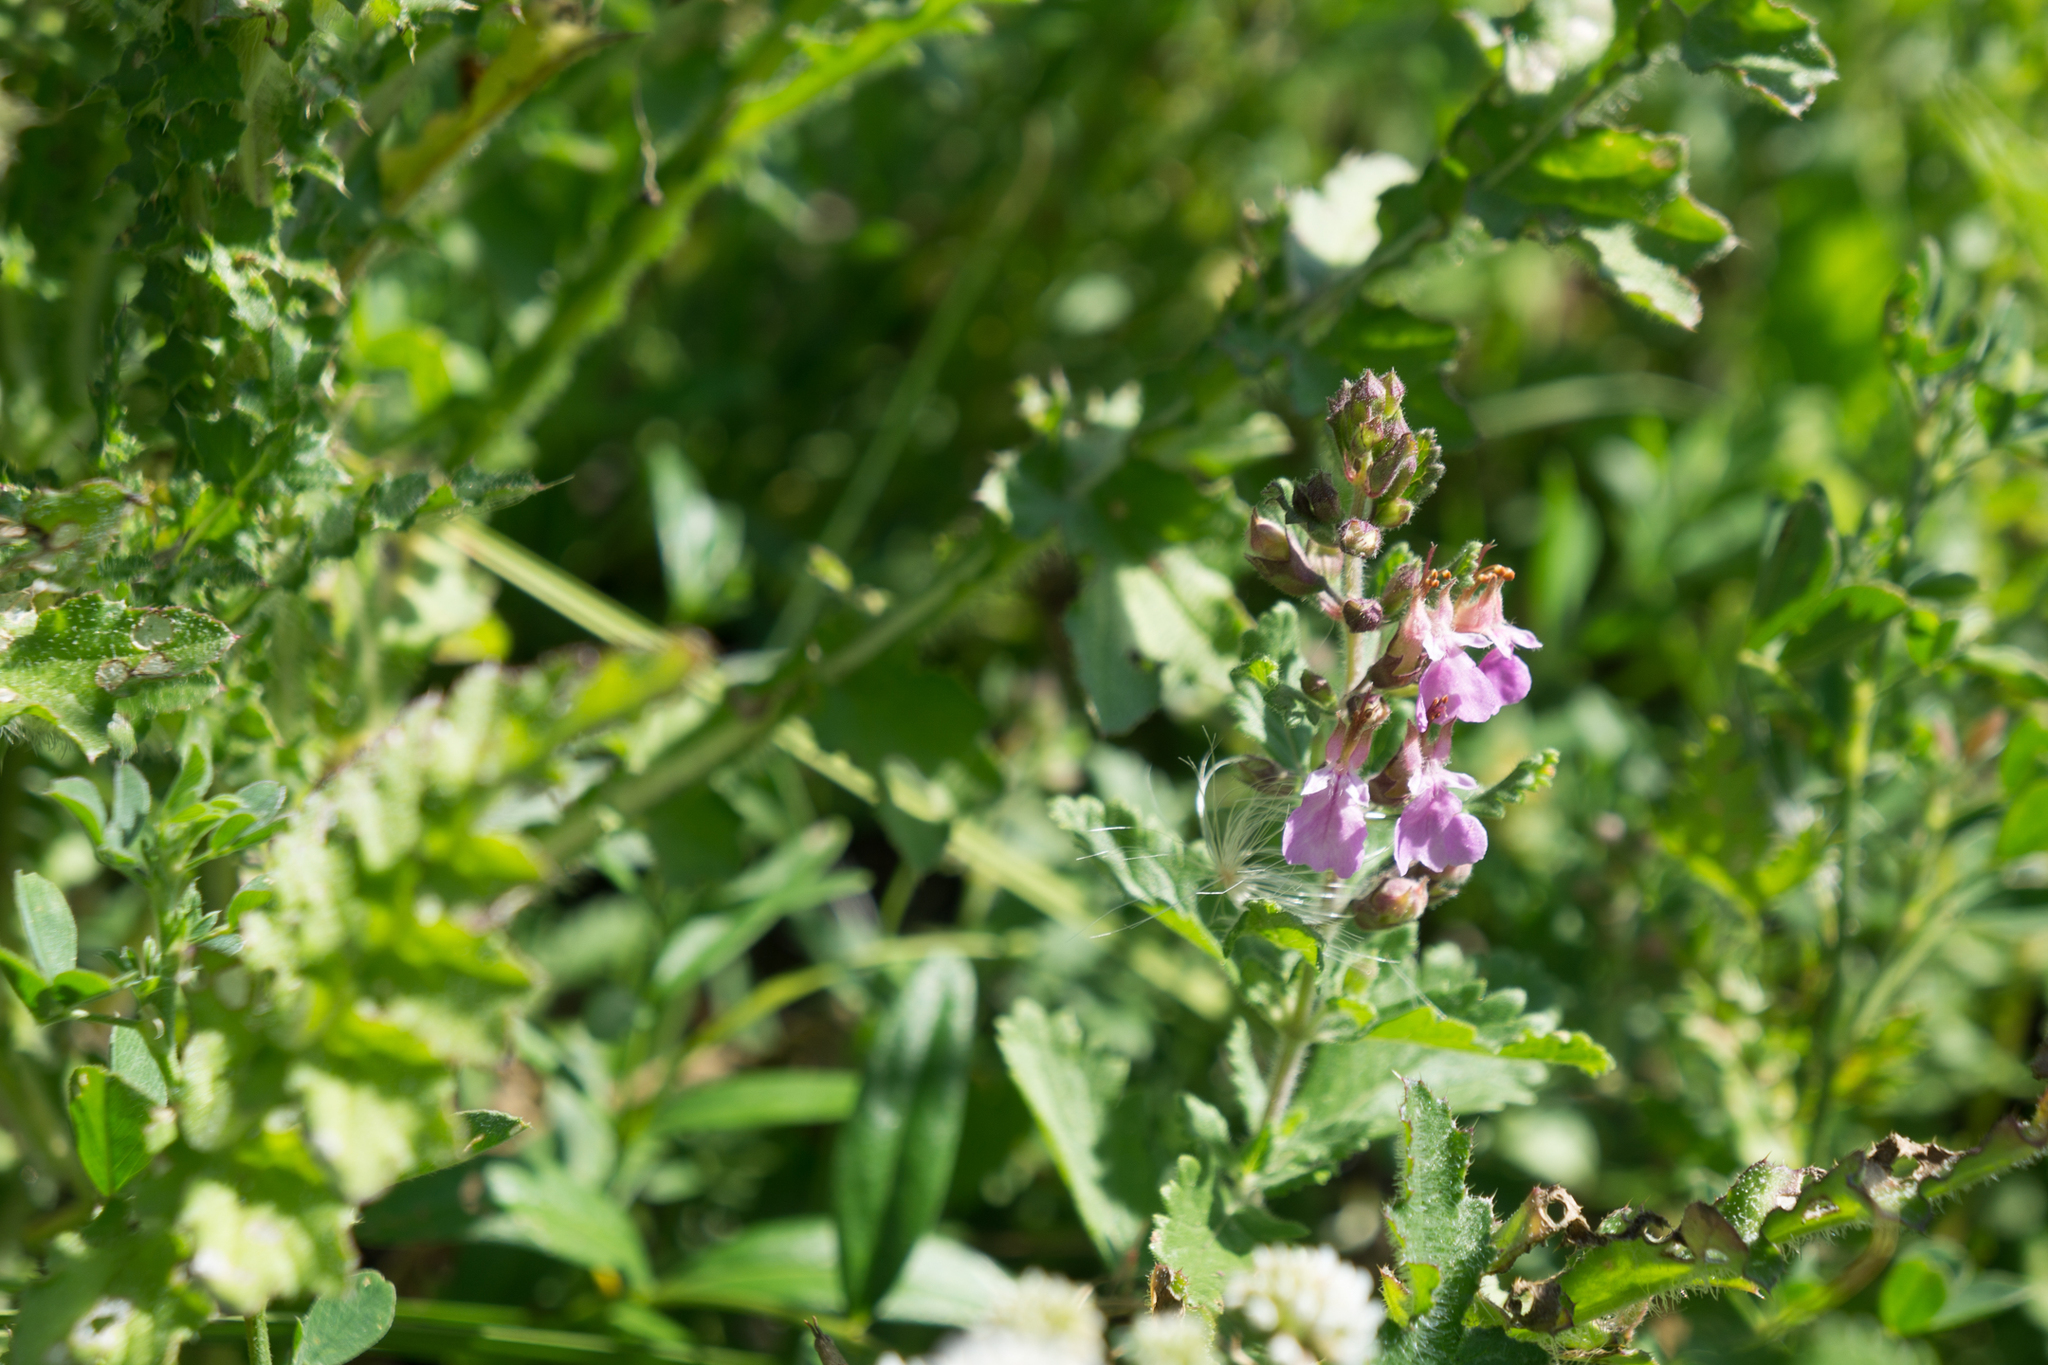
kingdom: Plantae
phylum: Tracheophyta
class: Magnoliopsida
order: Lamiales
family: Lamiaceae
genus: Teucrium
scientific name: Teucrium chamaedrys
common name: Wall germander
